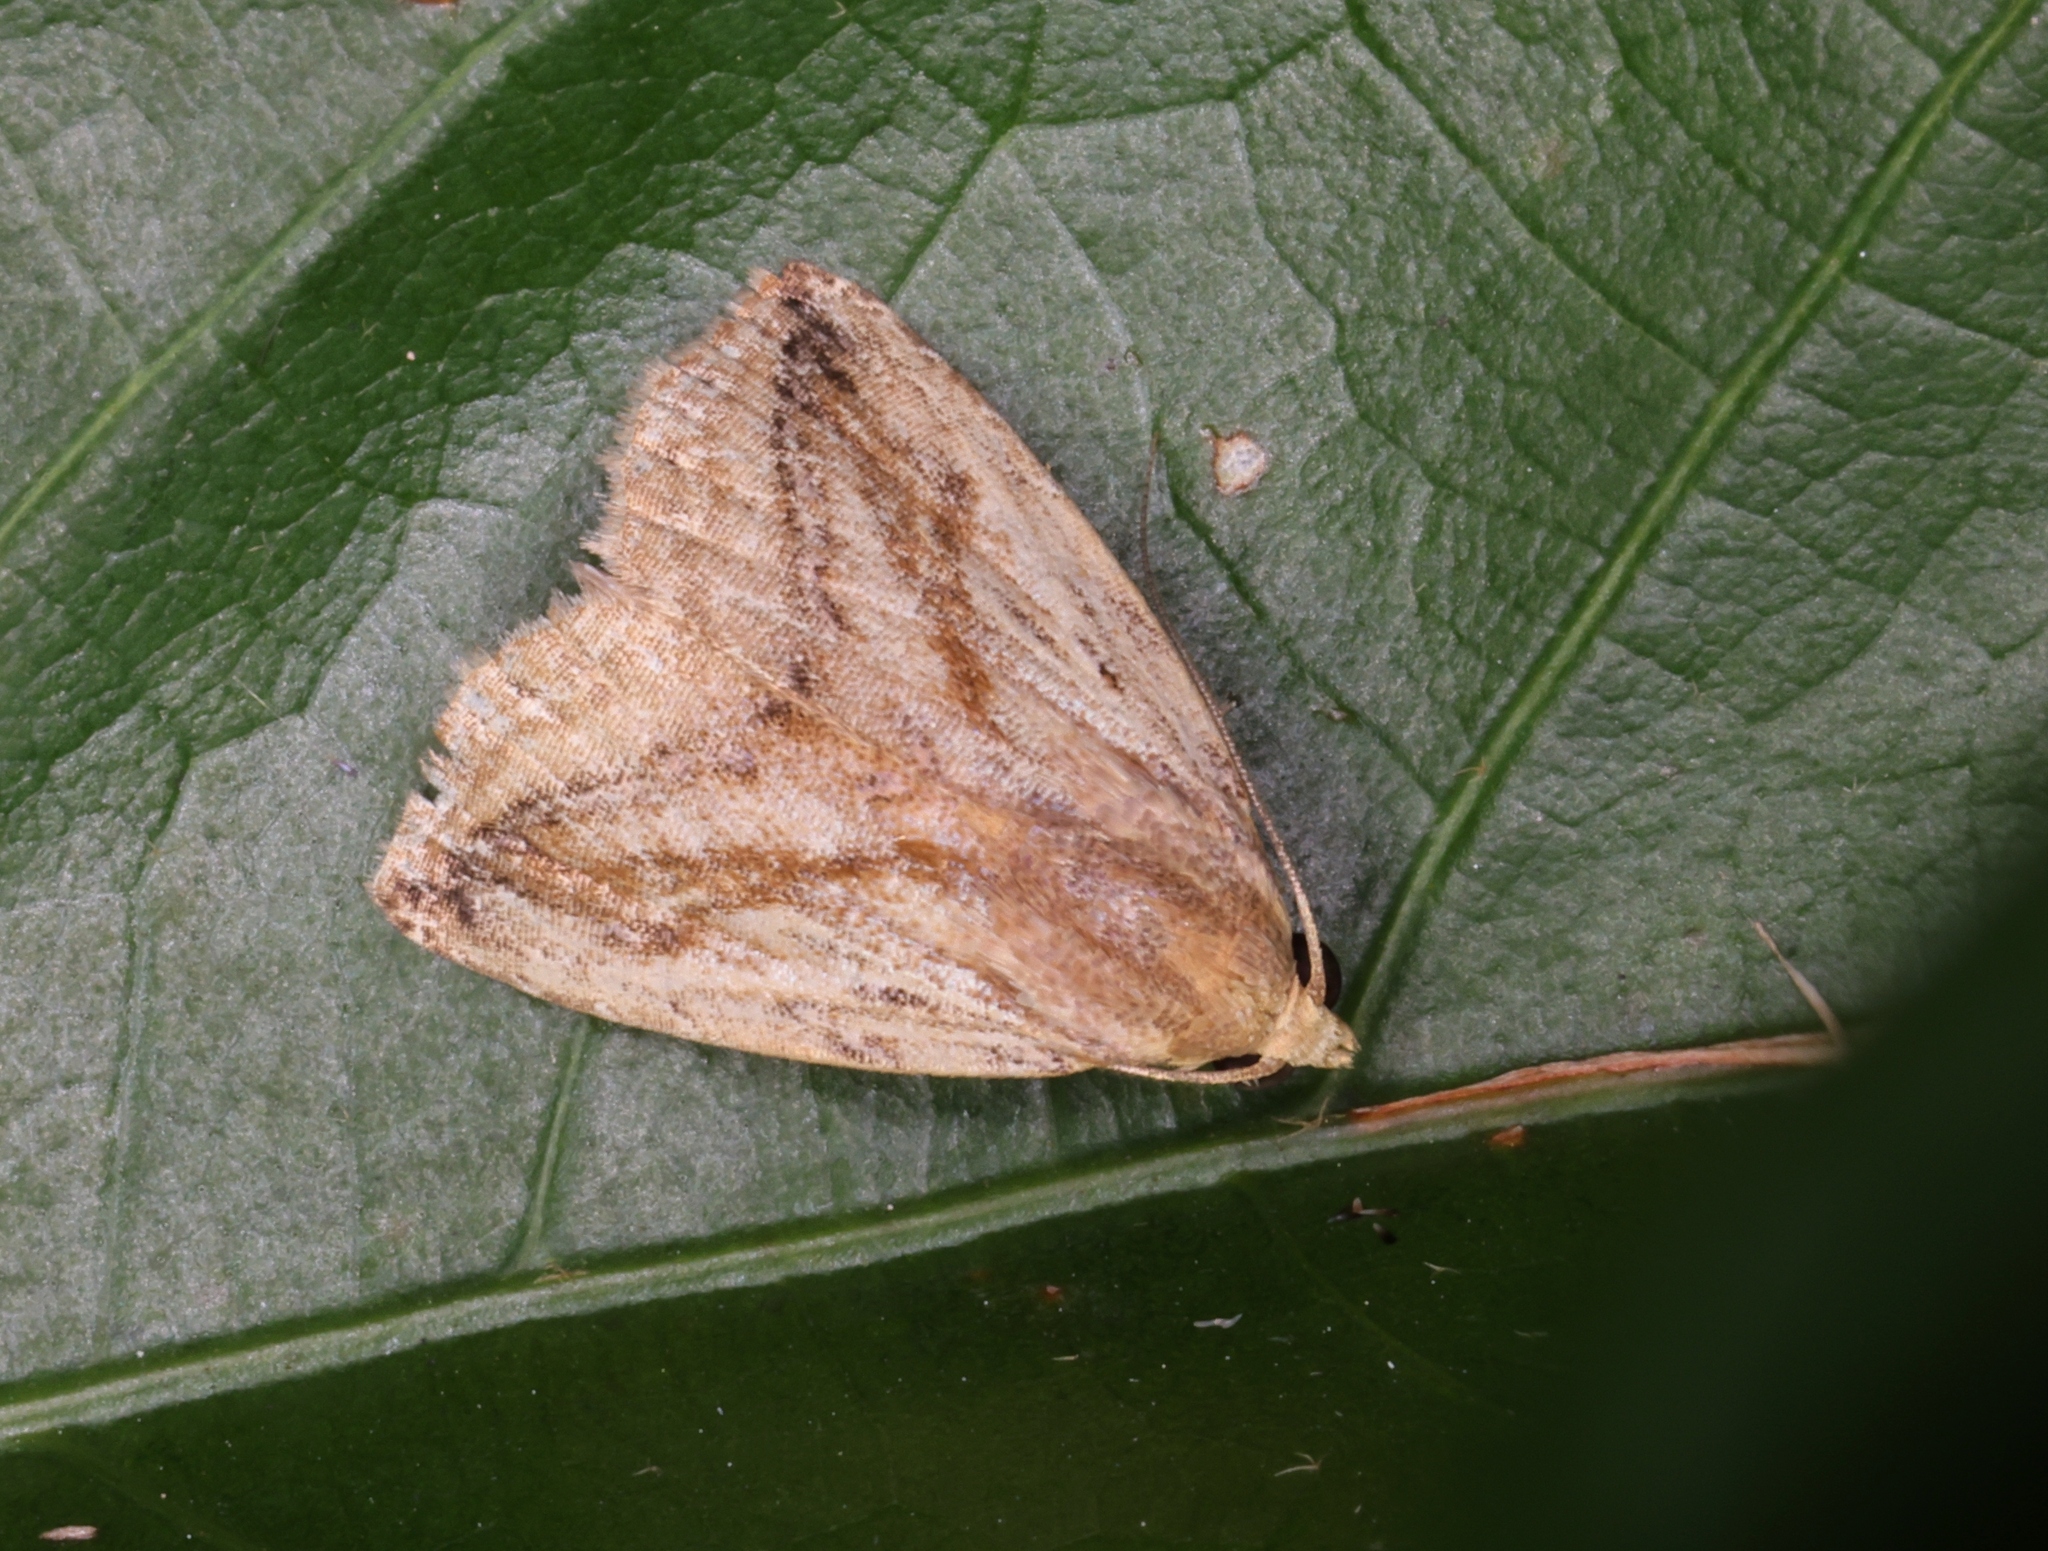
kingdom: Animalia
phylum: Arthropoda
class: Insecta
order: Lepidoptera
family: Erebidae
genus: Rivula
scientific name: Rivula striatura
